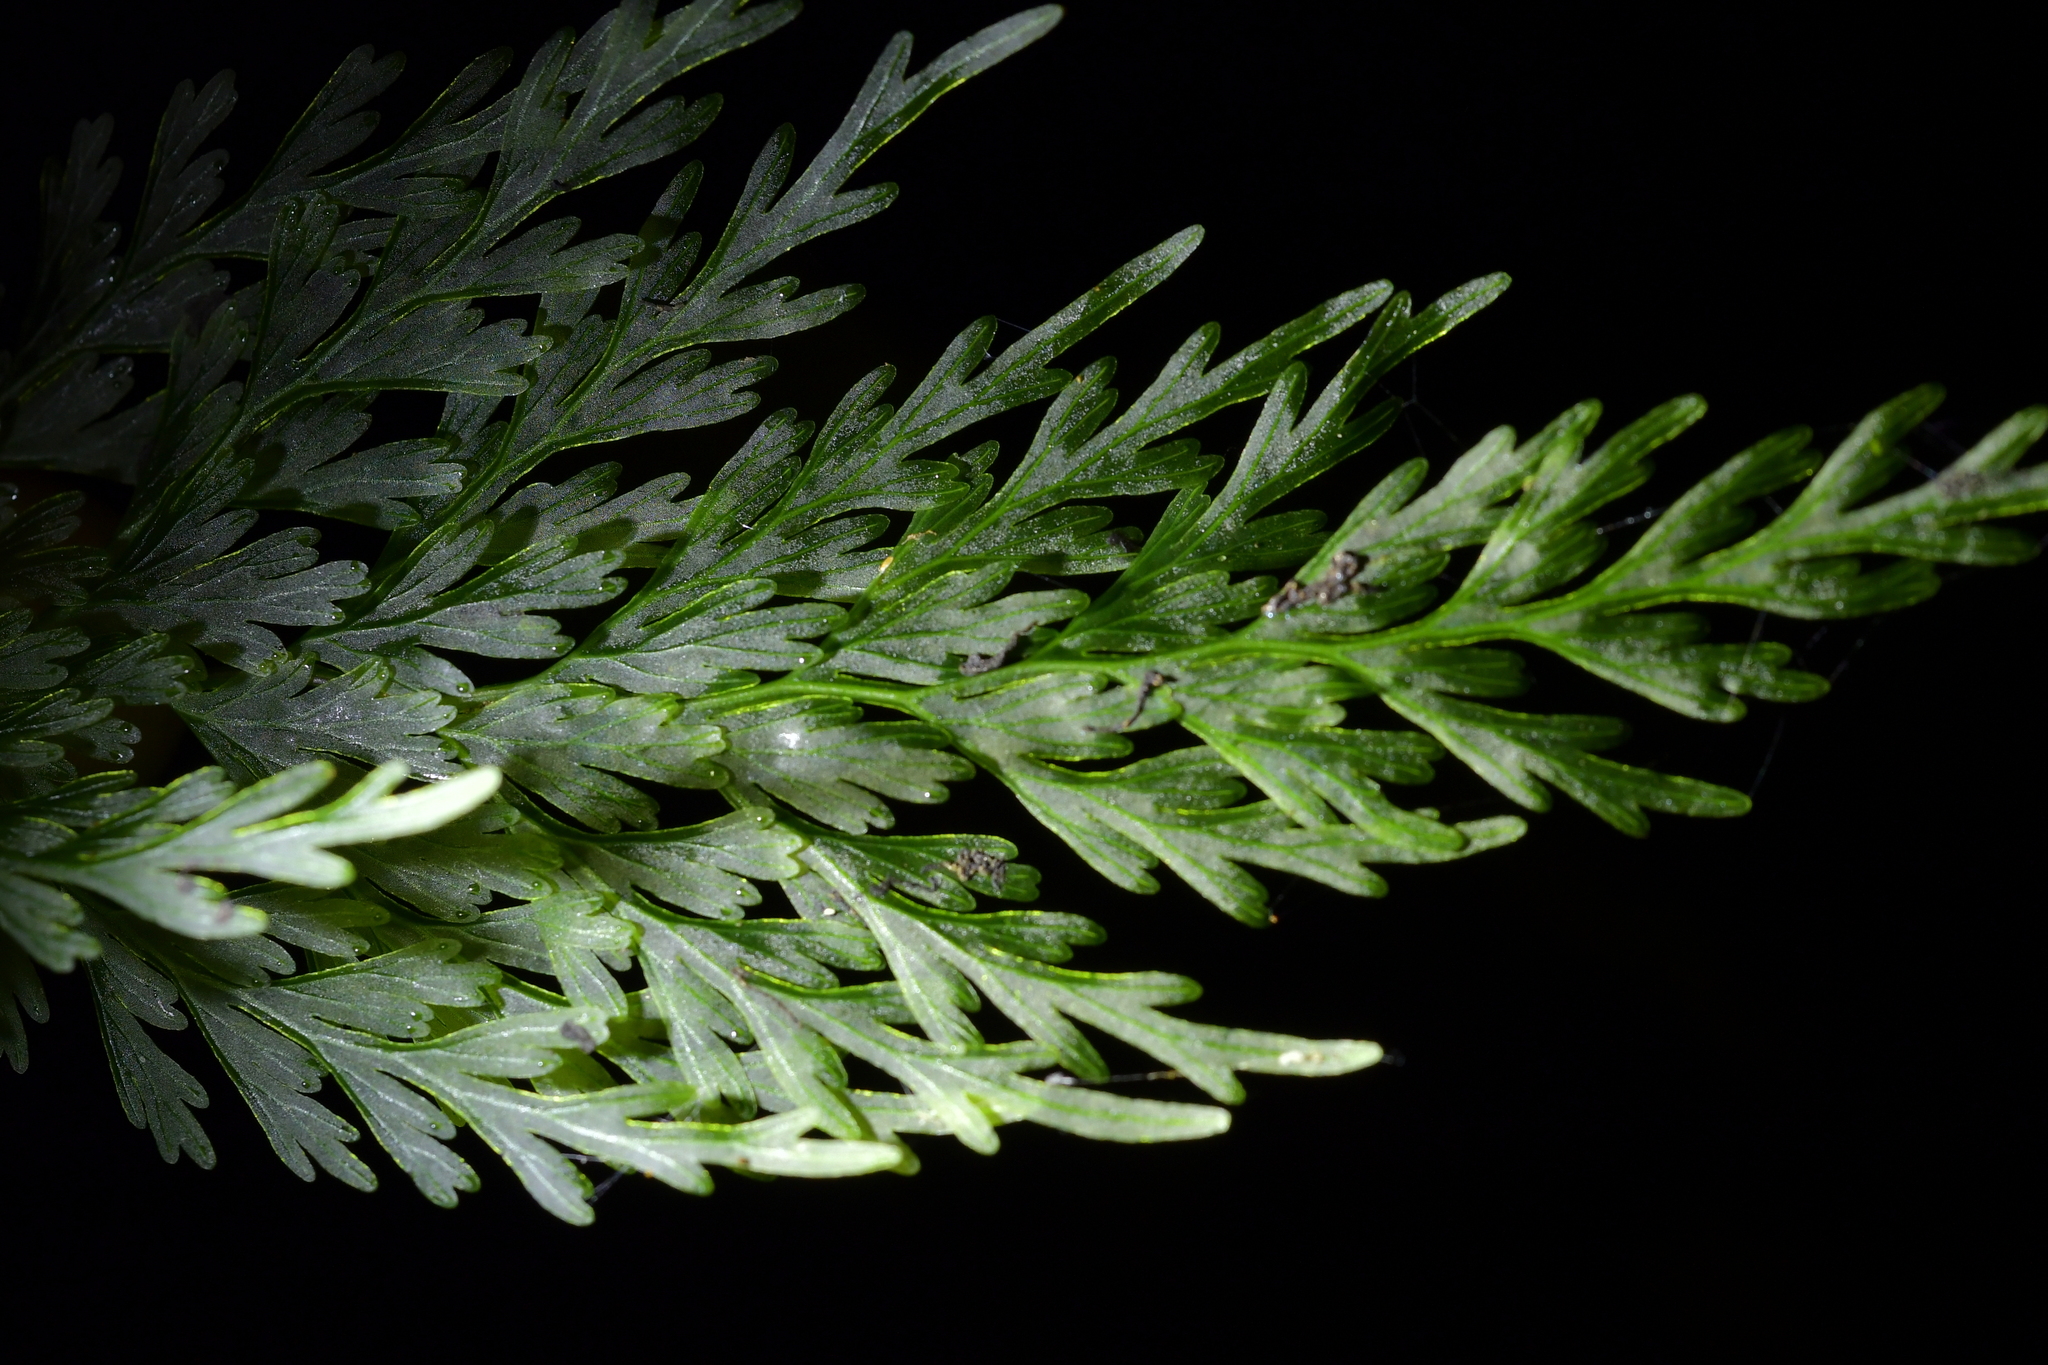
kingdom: Plantae
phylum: Tracheophyta
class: Polypodiopsida
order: Hymenophyllales
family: Hymenophyllaceae
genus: Hymenophyllum
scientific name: Hymenophyllum demissum
